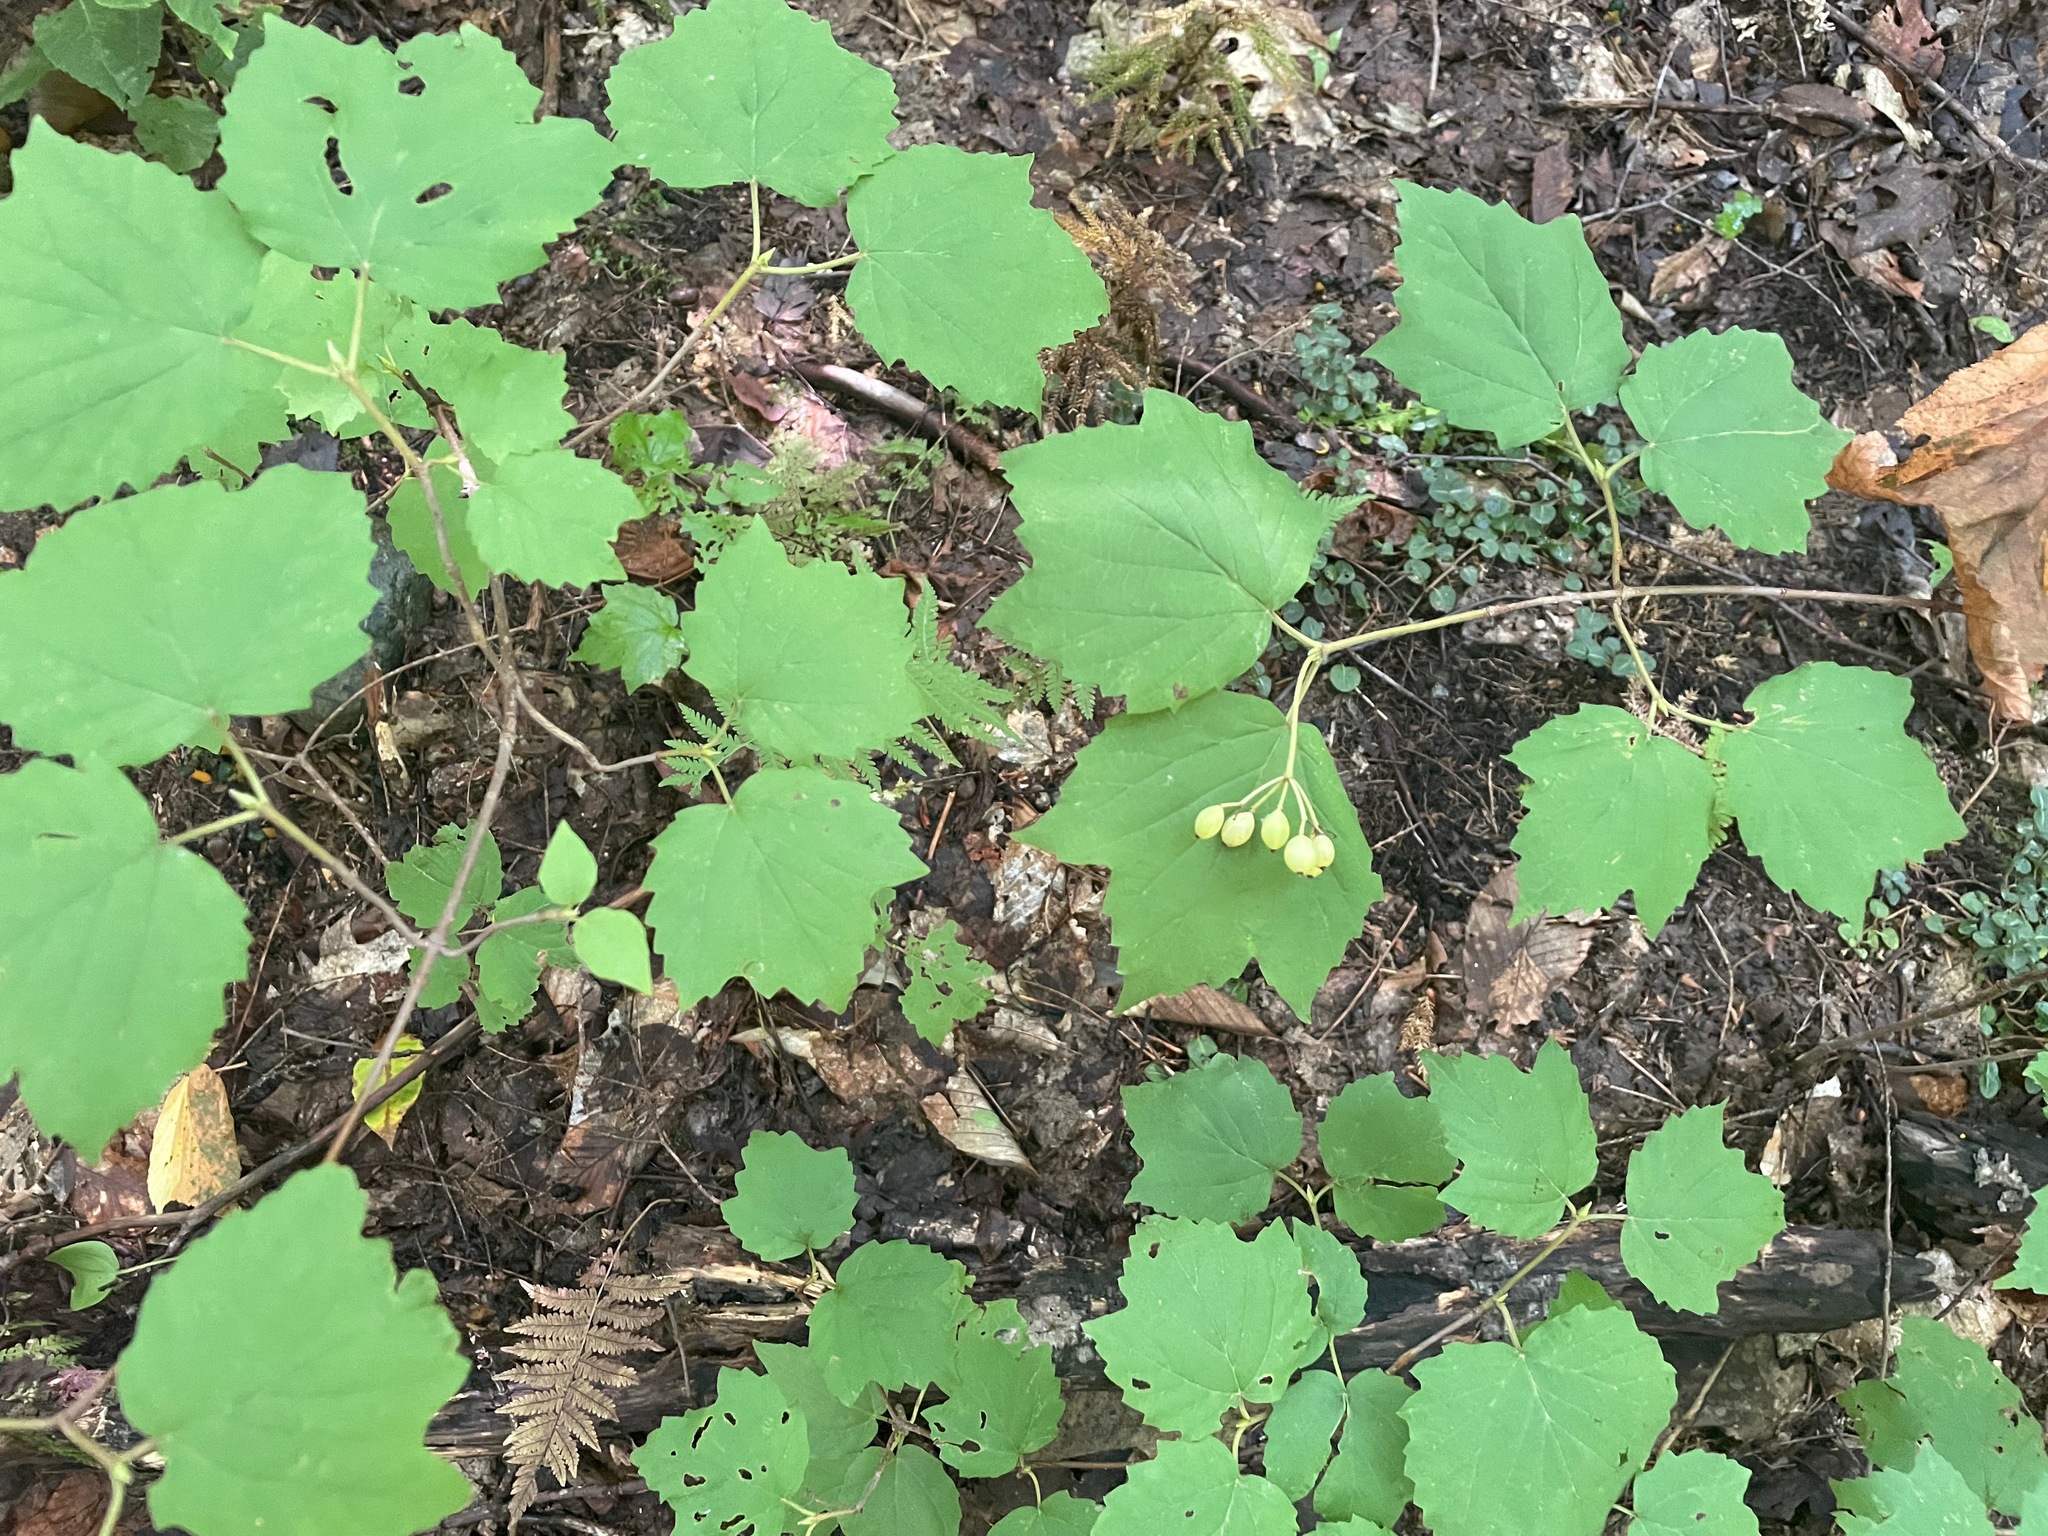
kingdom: Plantae
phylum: Tracheophyta
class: Magnoliopsida
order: Dipsacales
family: Viburnaceae
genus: Viburnum
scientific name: Viburnum acerifolium
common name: Dockmackie
